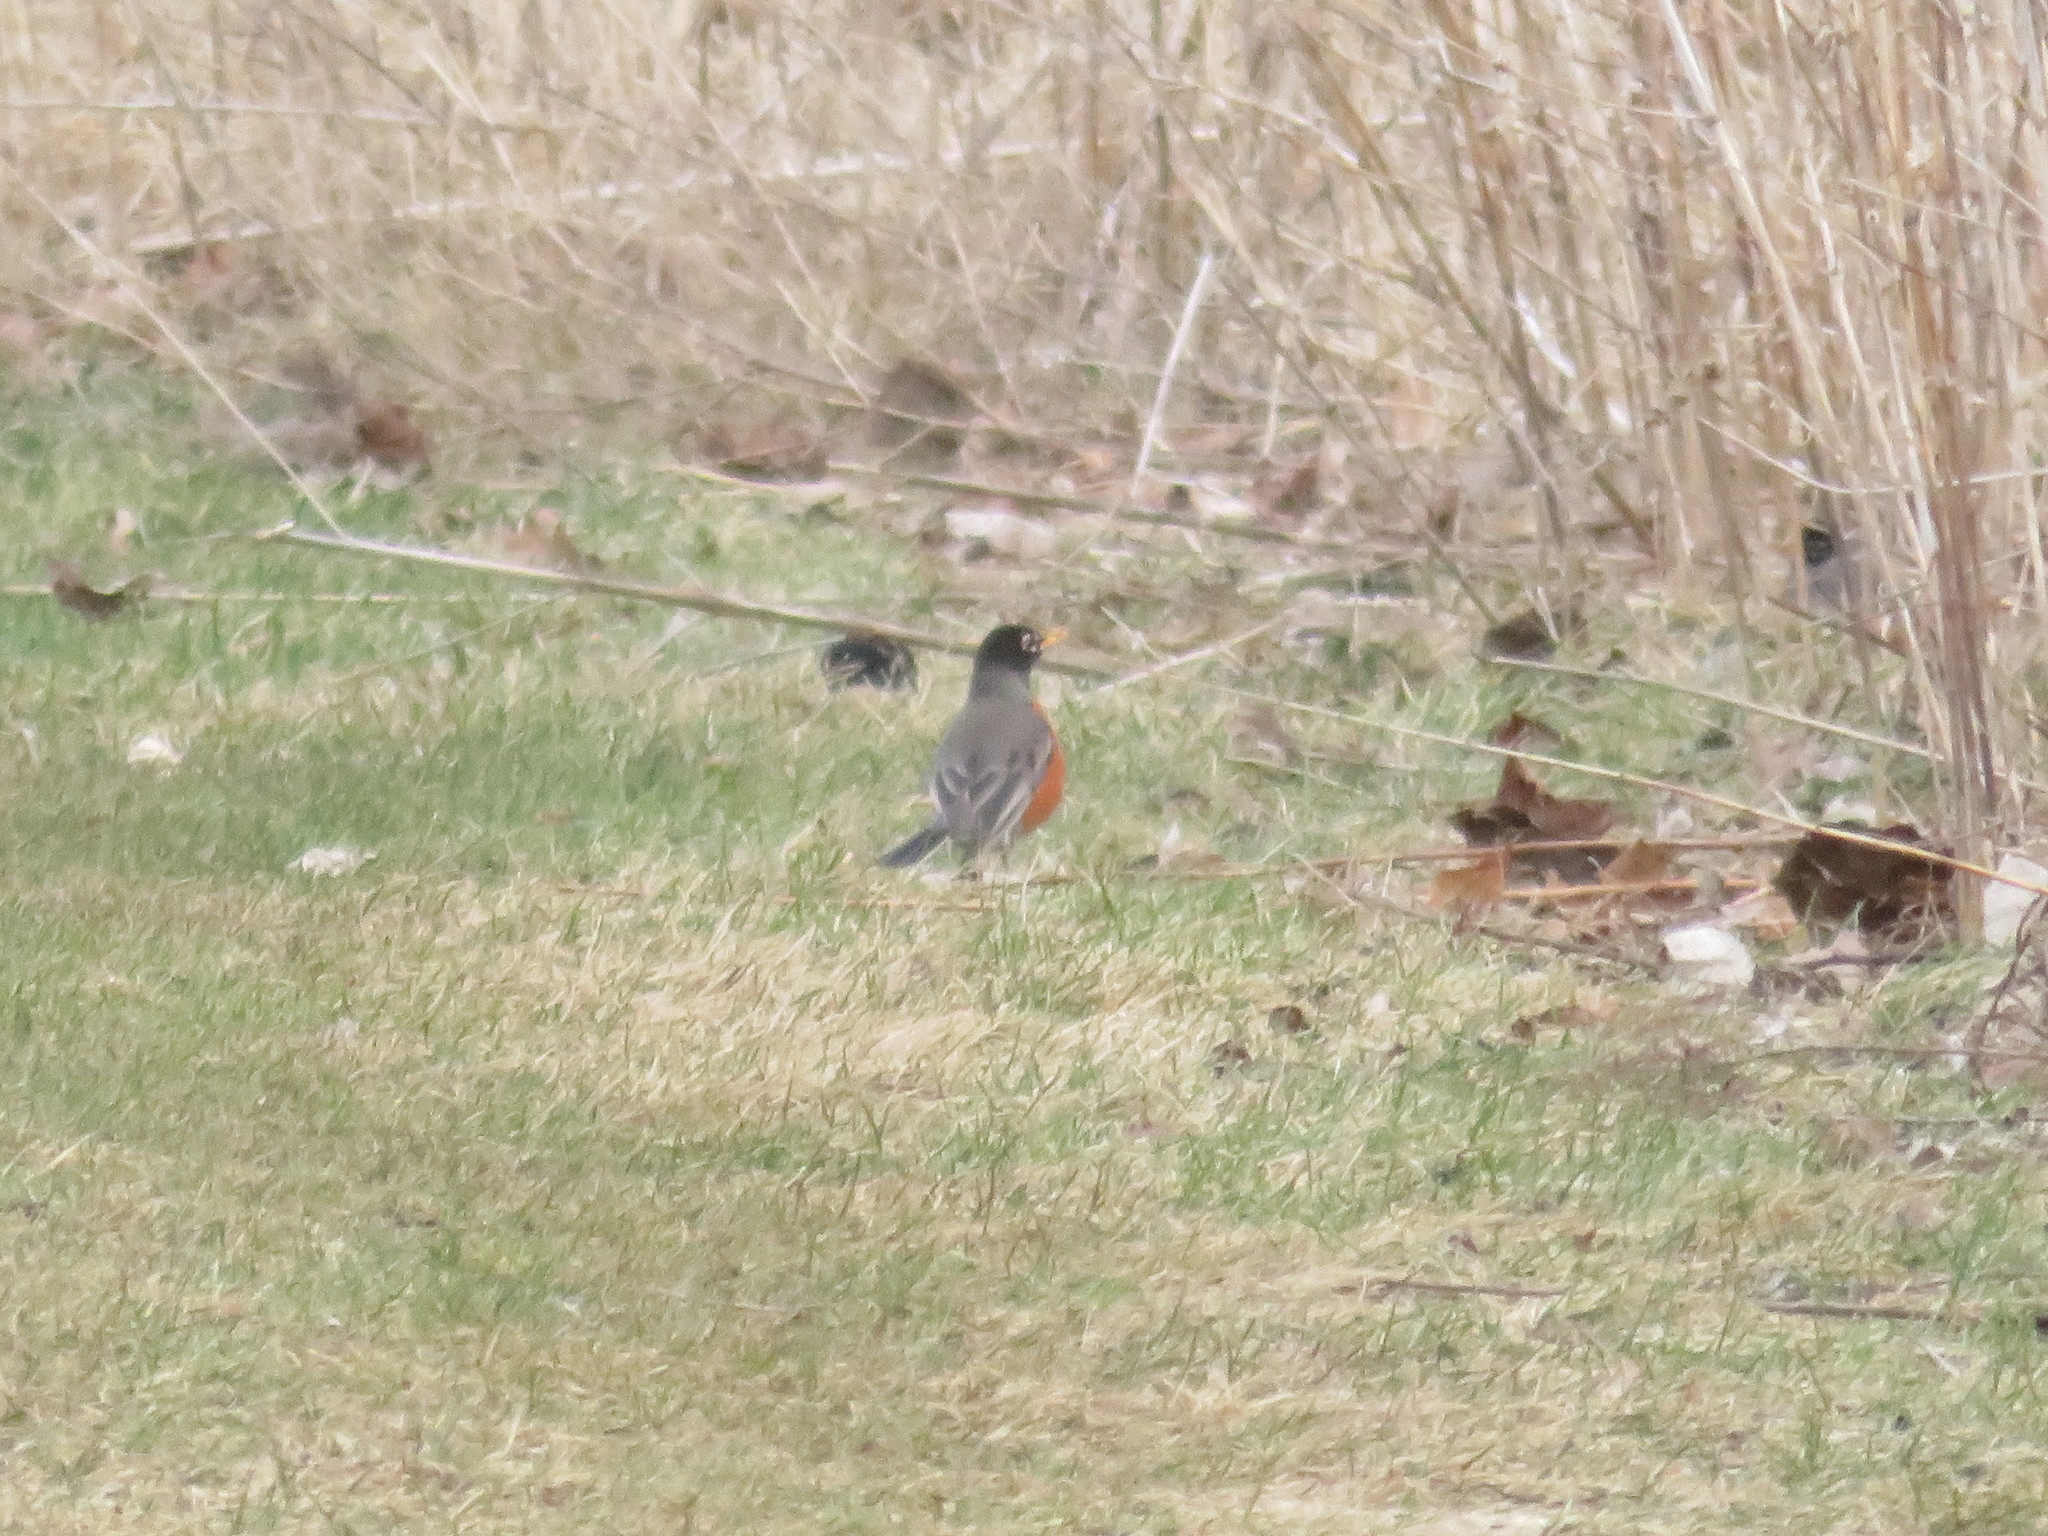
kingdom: Animalia
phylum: Chordata
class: Aves
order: Passeriformes
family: Turdidae
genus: Turdus
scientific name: Turdus migratorius
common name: American robin
